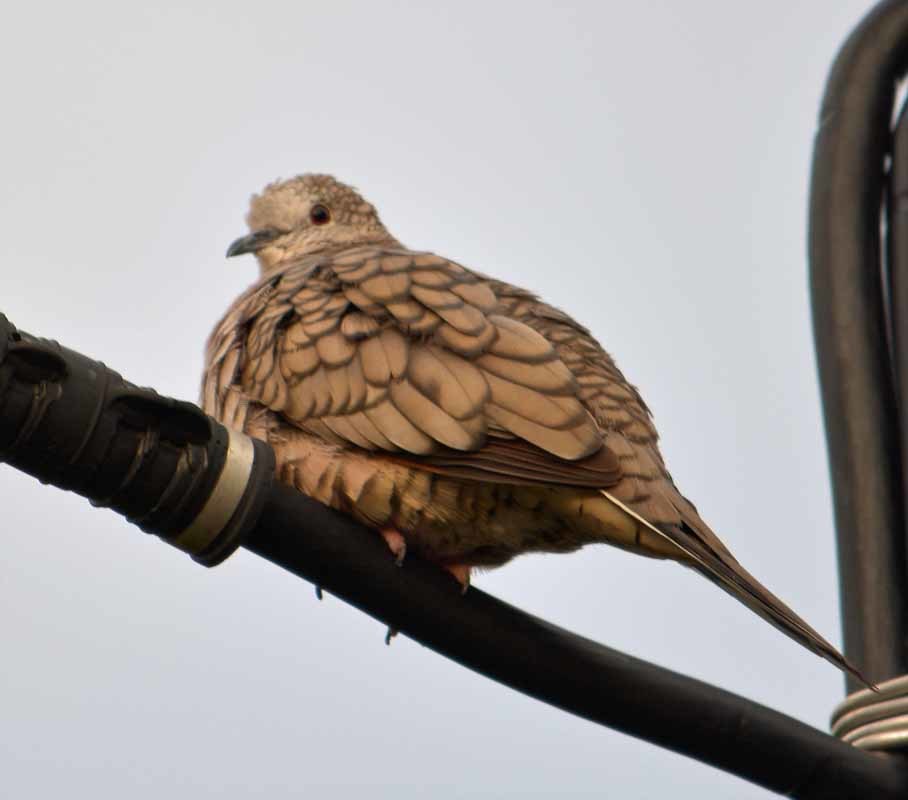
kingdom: Animalia
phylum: Chordata
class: Aves
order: Columbiformes
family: Columbidae
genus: Columbina
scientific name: Columbina inca
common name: Inca dove
